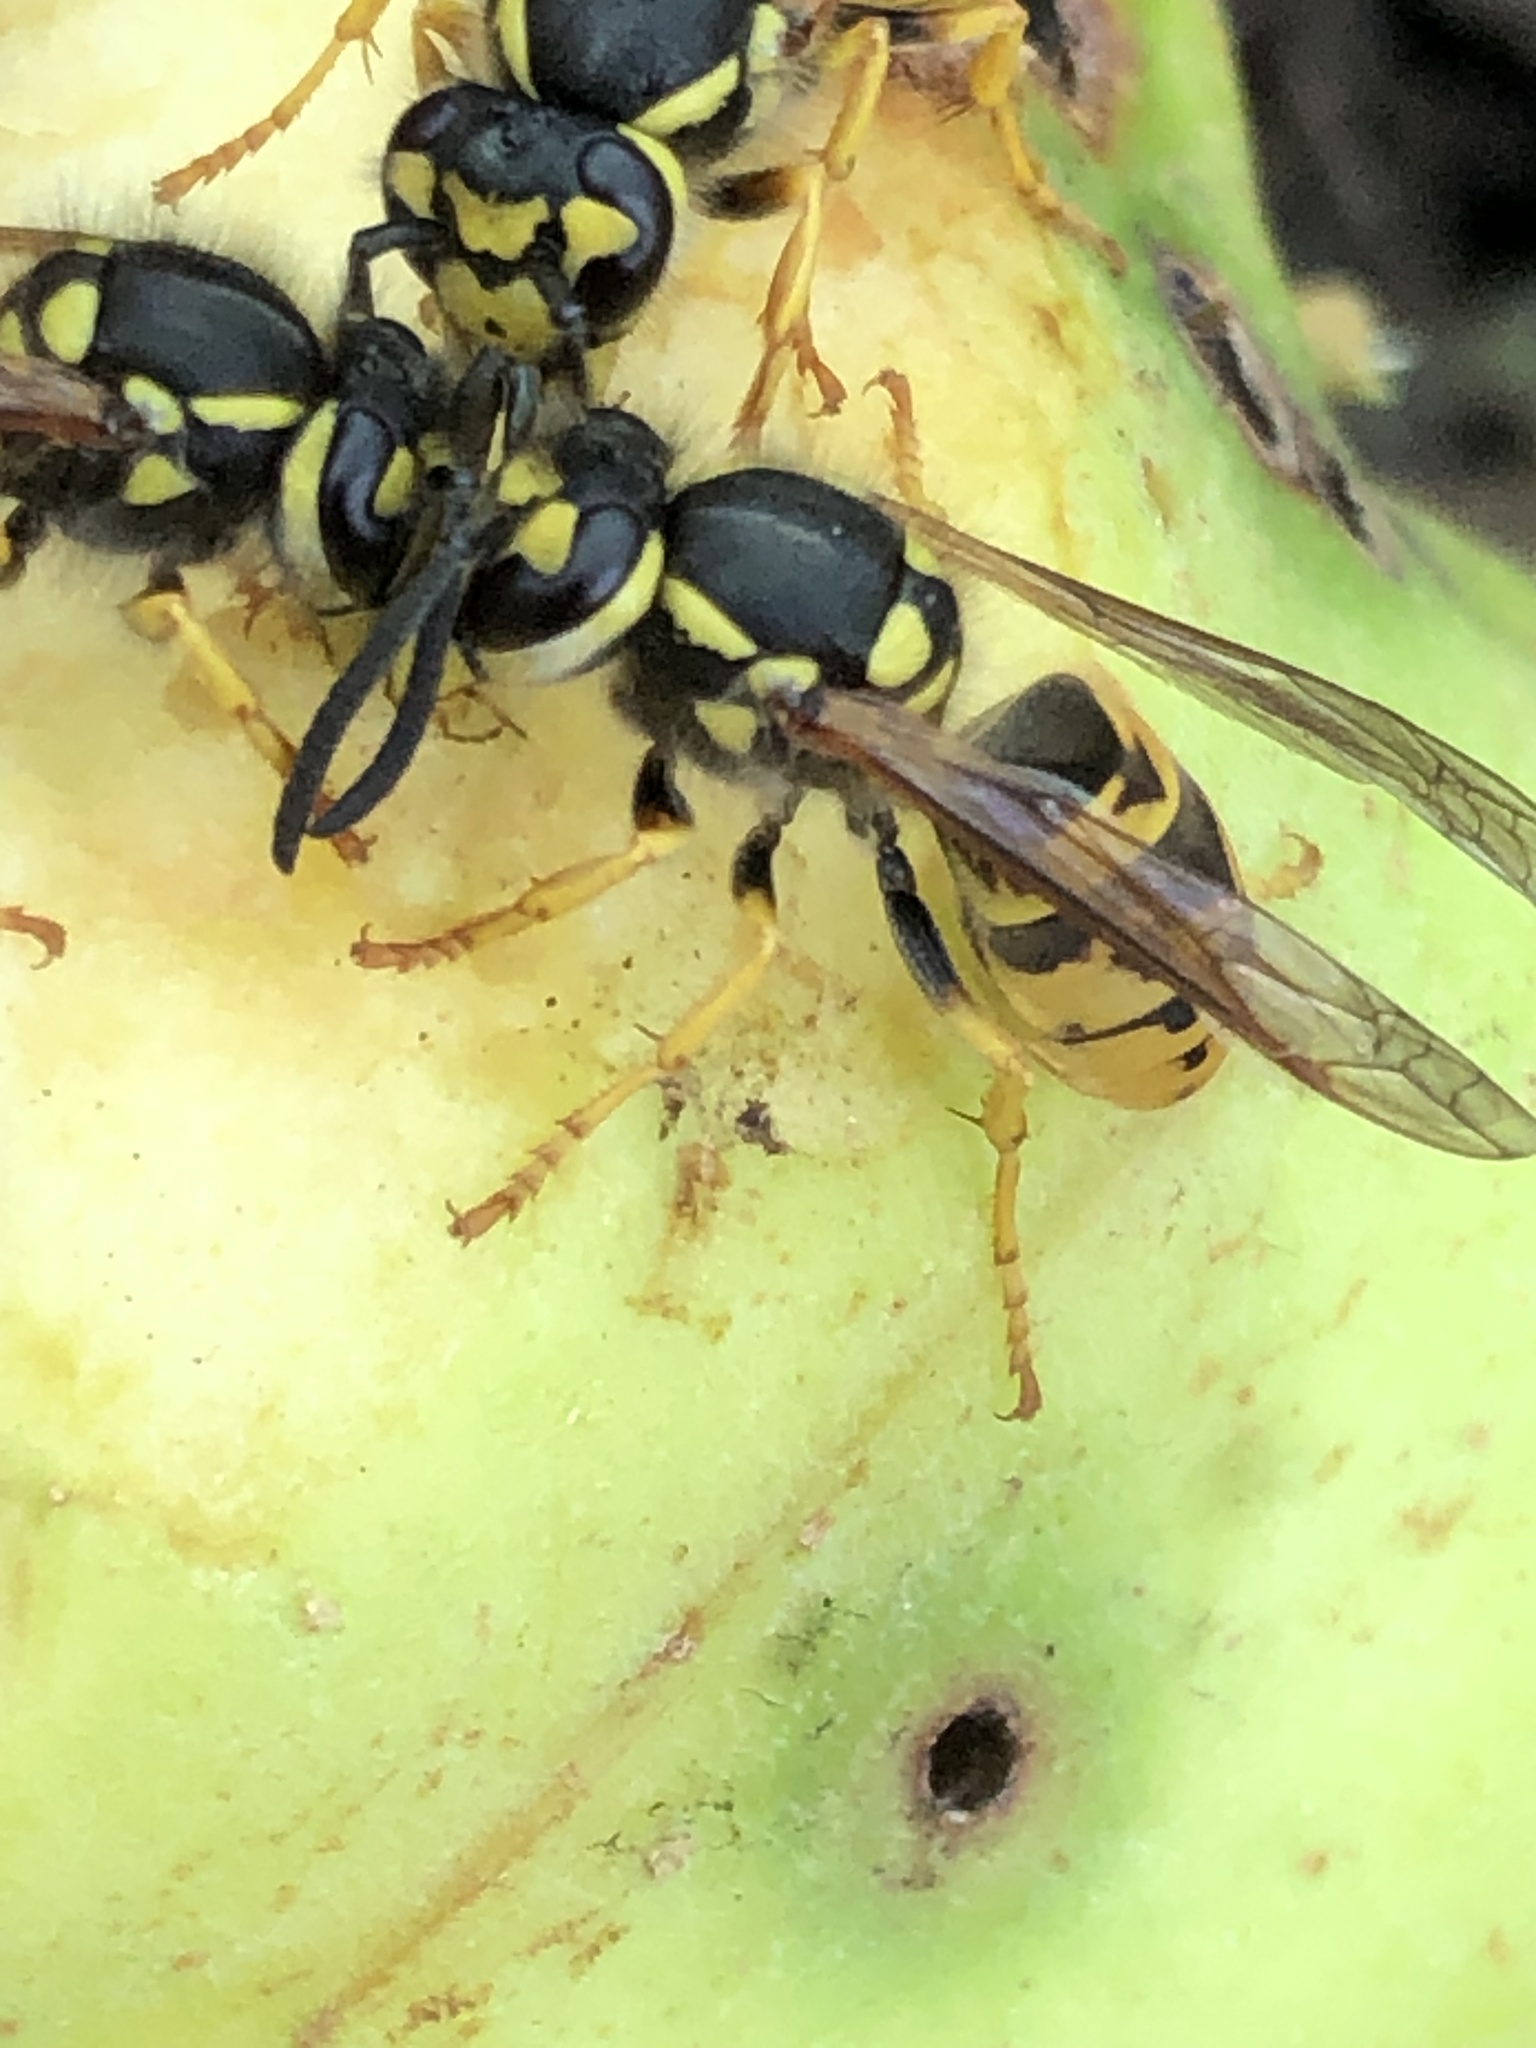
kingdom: Animalia
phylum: Arthropoda
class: Insecta
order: Hymenoptera
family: Vespidae
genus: Vespula
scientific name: Vespula germanica
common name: German wasp
